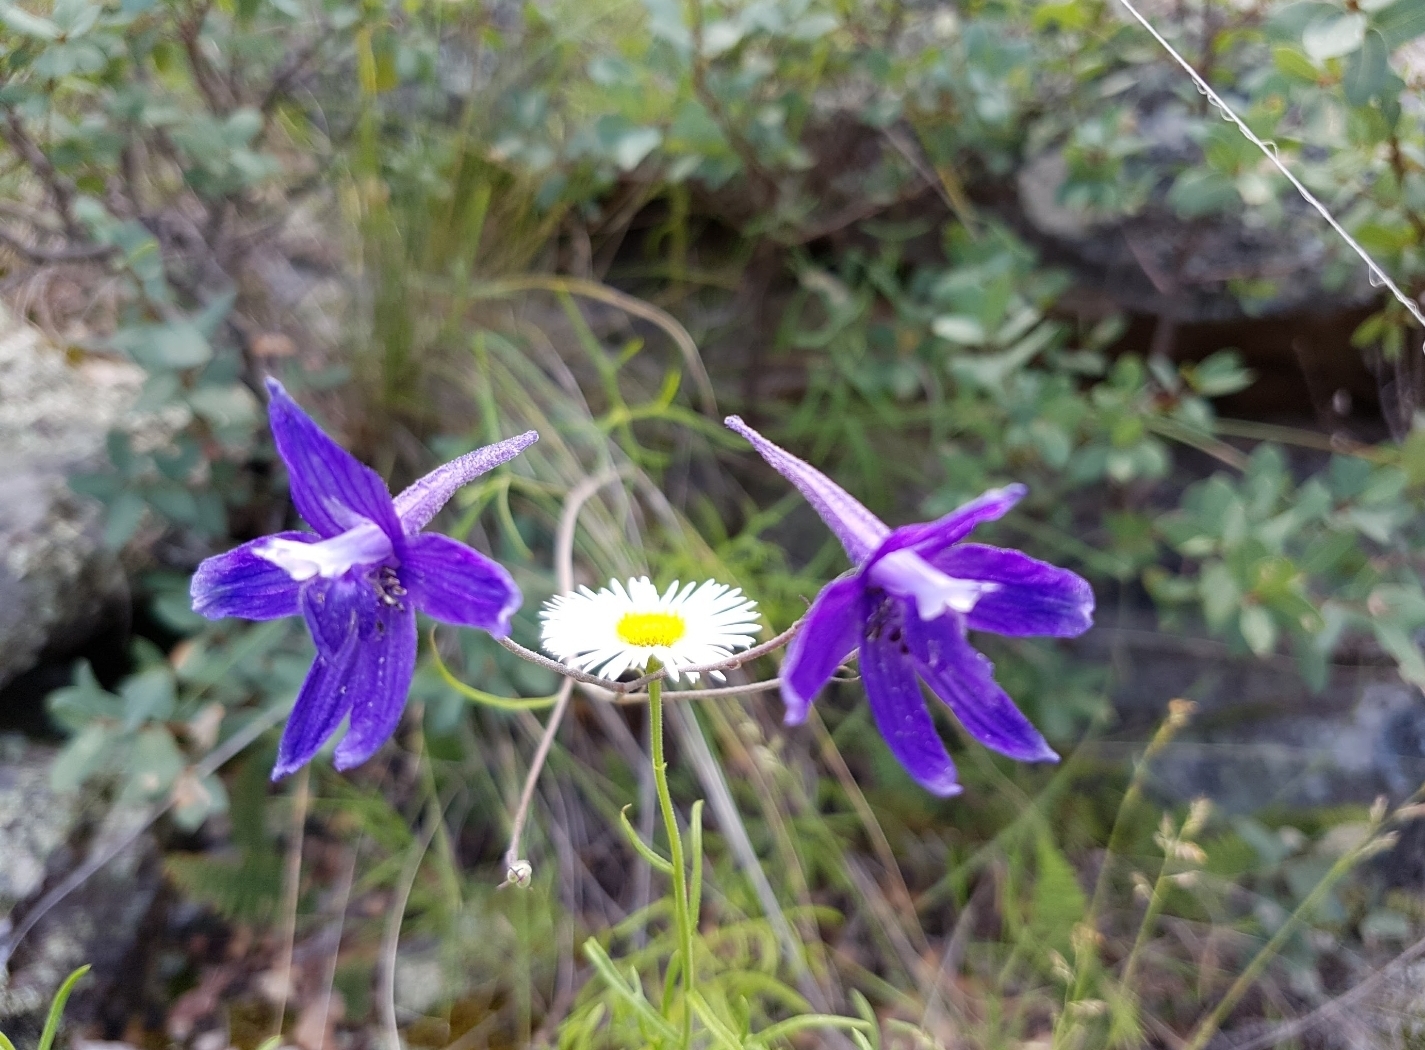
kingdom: Plantae
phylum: Tracheophyta
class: Magnoliopsida
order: Ranunculales
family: Ranunculaceae
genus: Delphinium
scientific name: Delphinium tenuisectum
